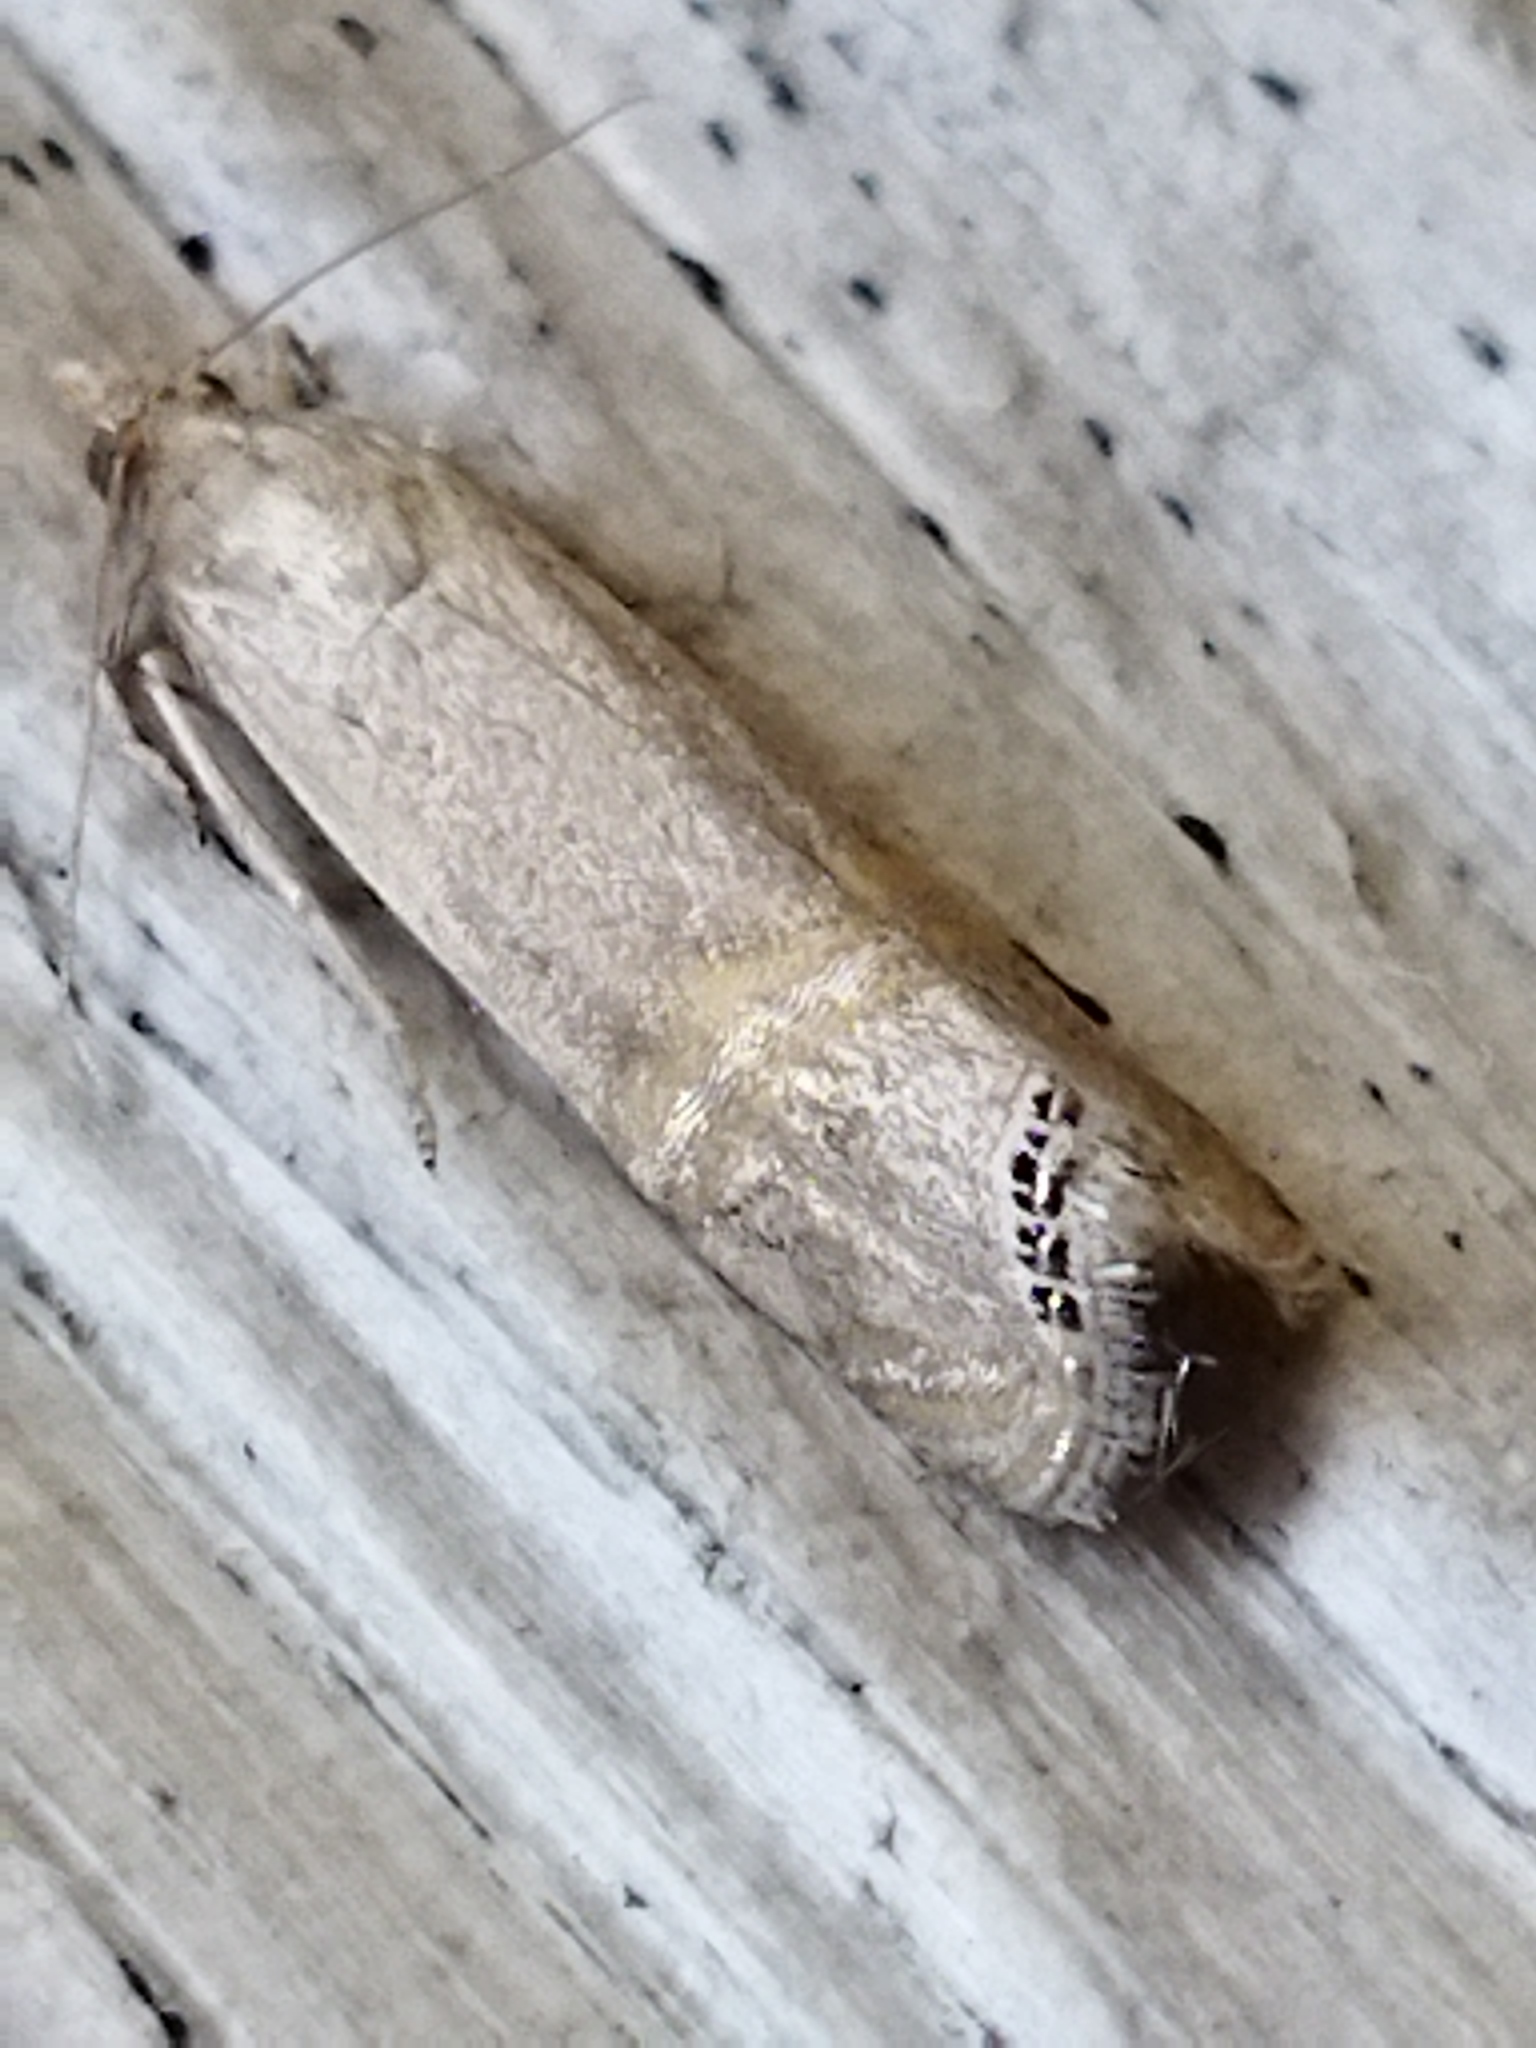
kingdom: Animalia
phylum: Arthropoda
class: Insecta
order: Lepidoptera
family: Crambidae
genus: Euchromius
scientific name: Euchromius ocellea
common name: Necklace veneer moth
